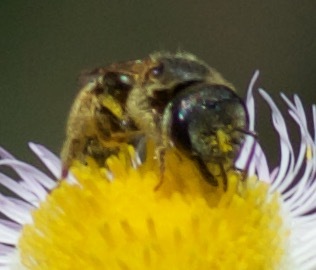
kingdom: Animalia
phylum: Arthropoda
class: Insecta
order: Hymenoptera
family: Halictidae
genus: Halictus
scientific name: Halictus ligatus
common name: Ligated furrow bee
